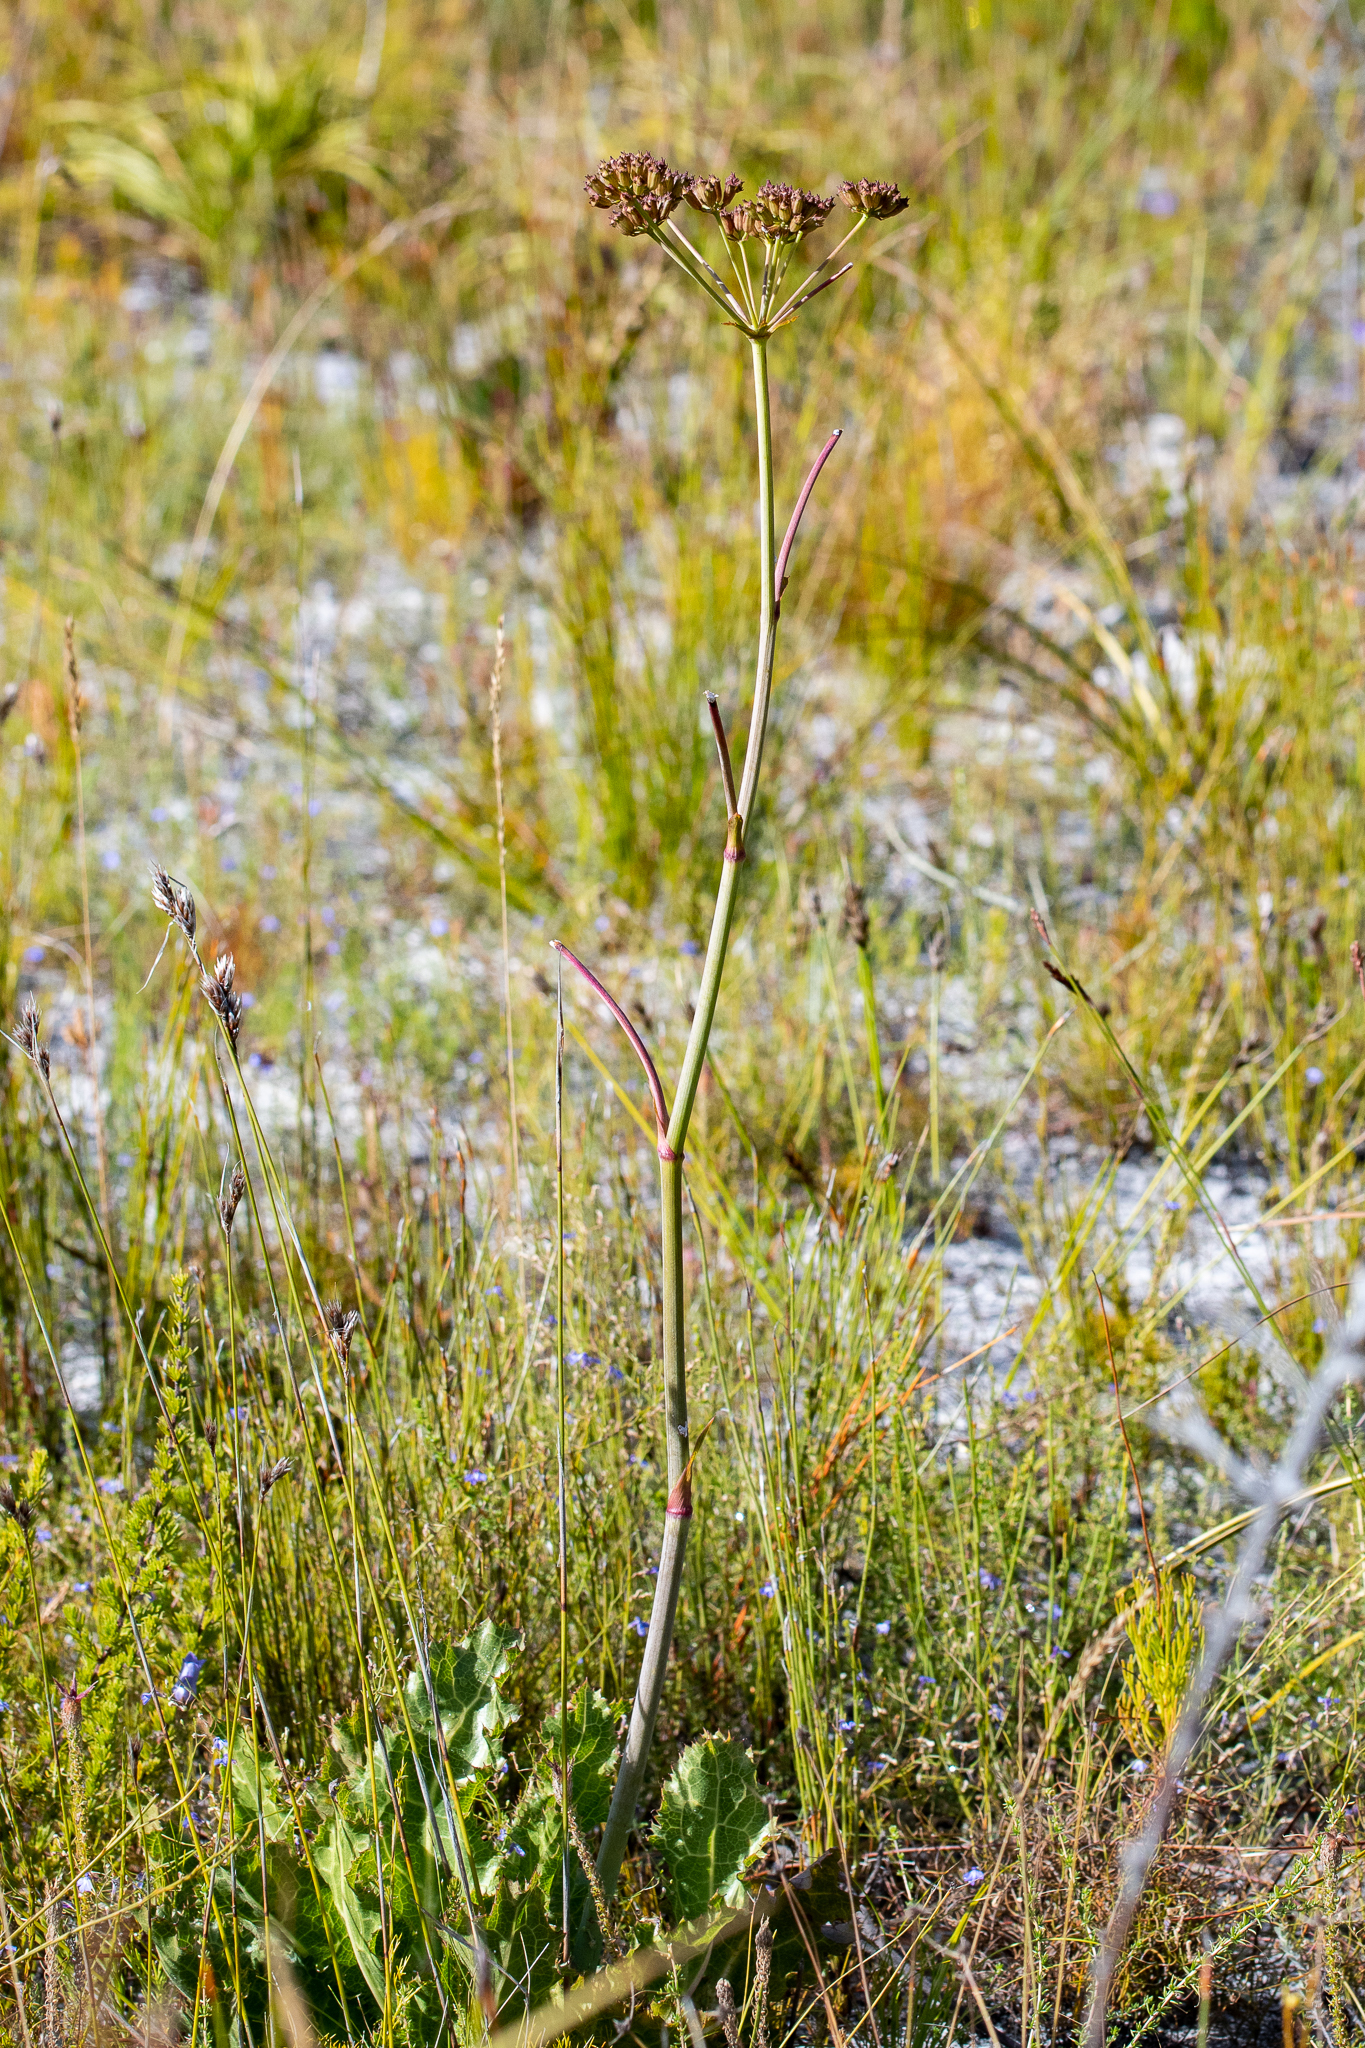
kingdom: Plantae
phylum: Tracheophyta
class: Magnoliopsida
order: Apiales
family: Apiaceae
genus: Lichtensteinia
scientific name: Lichtensteinia lacera
